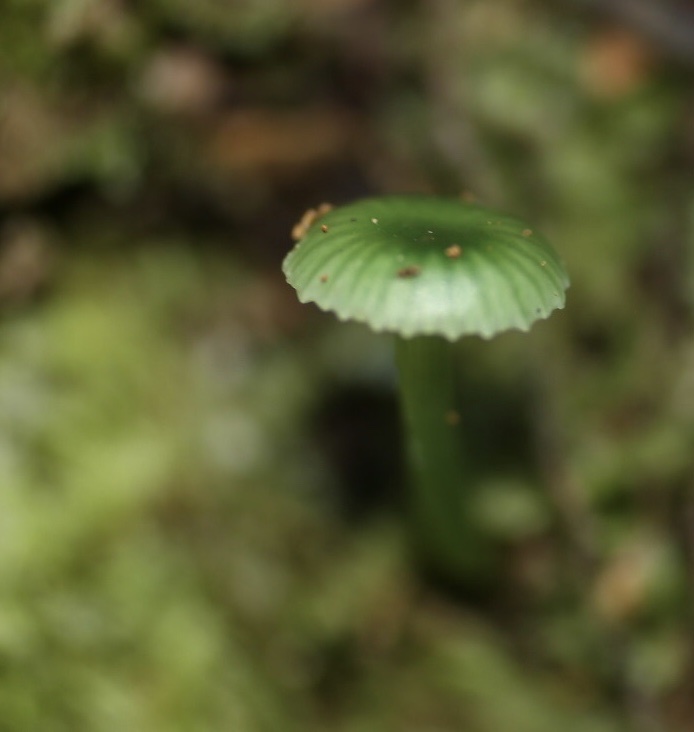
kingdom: Fungi
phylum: Basidiomycota
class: Agaricomycetes
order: Agaricales
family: Hygrophoraceae
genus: Gliophorus
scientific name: Gliophorus viridis
